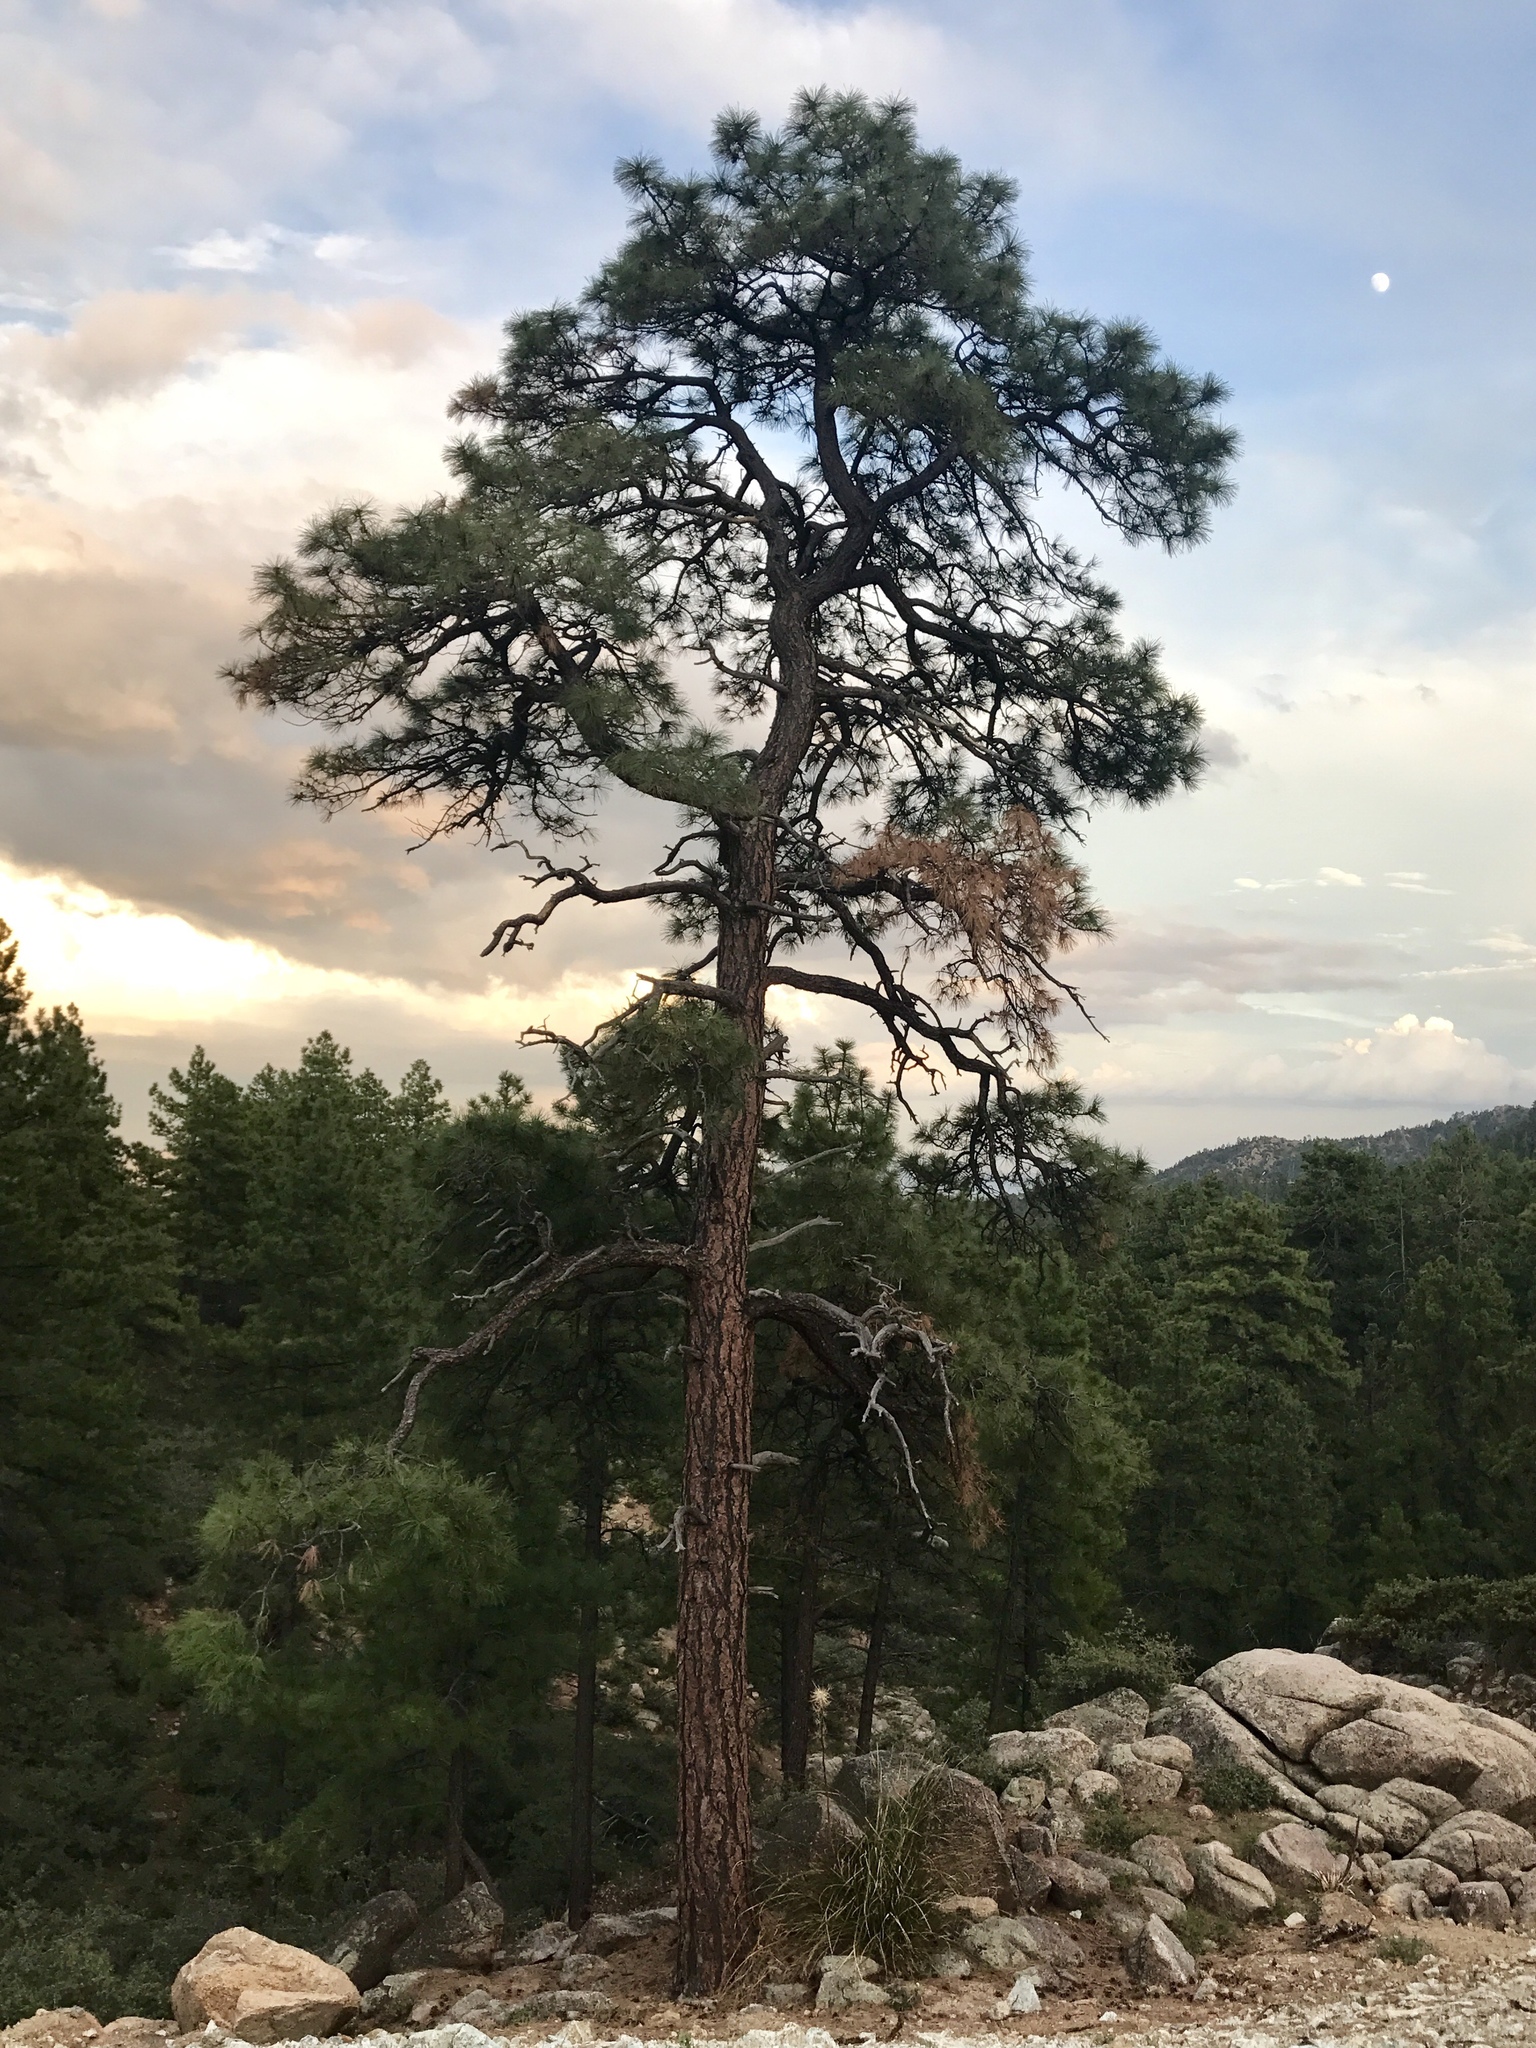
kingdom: Plantae
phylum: Tracheophyta
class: Pinopsida
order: Pinales
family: Pinaceae
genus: Pinus
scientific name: Pinus ponderosa
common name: Western yellow-pine
